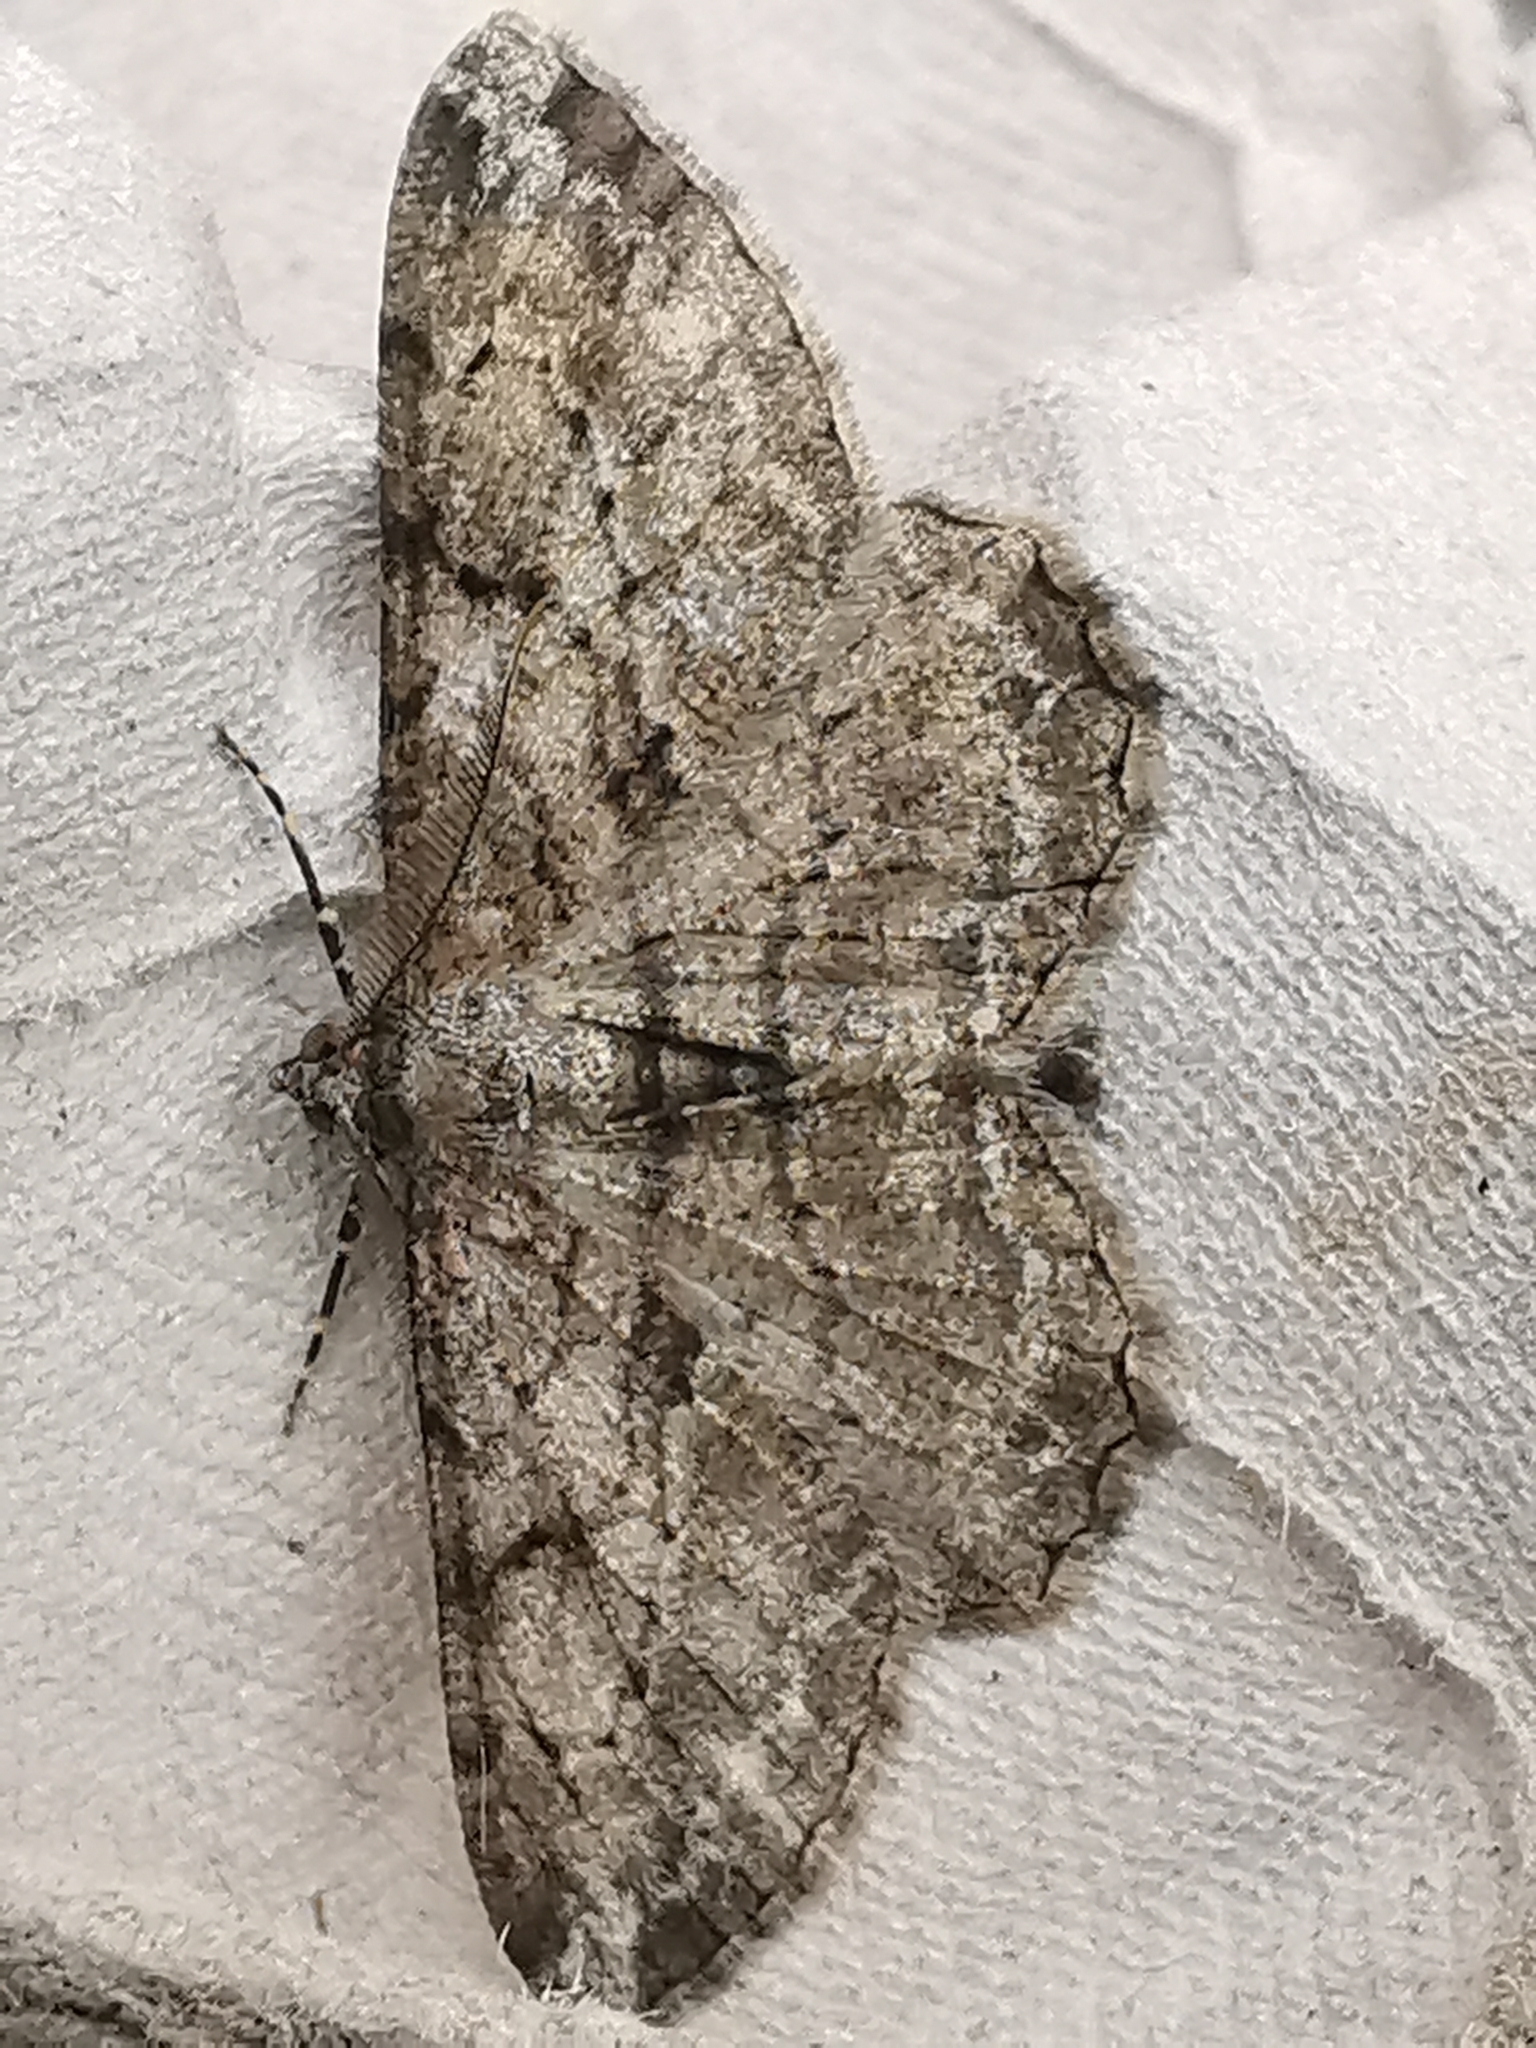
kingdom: Animalia
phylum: Arthropoda
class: Insecta
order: Lepidoptera
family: Geometridae
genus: Peribatodes
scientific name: Peribatodes rhomboidaria
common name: Willow beauty
